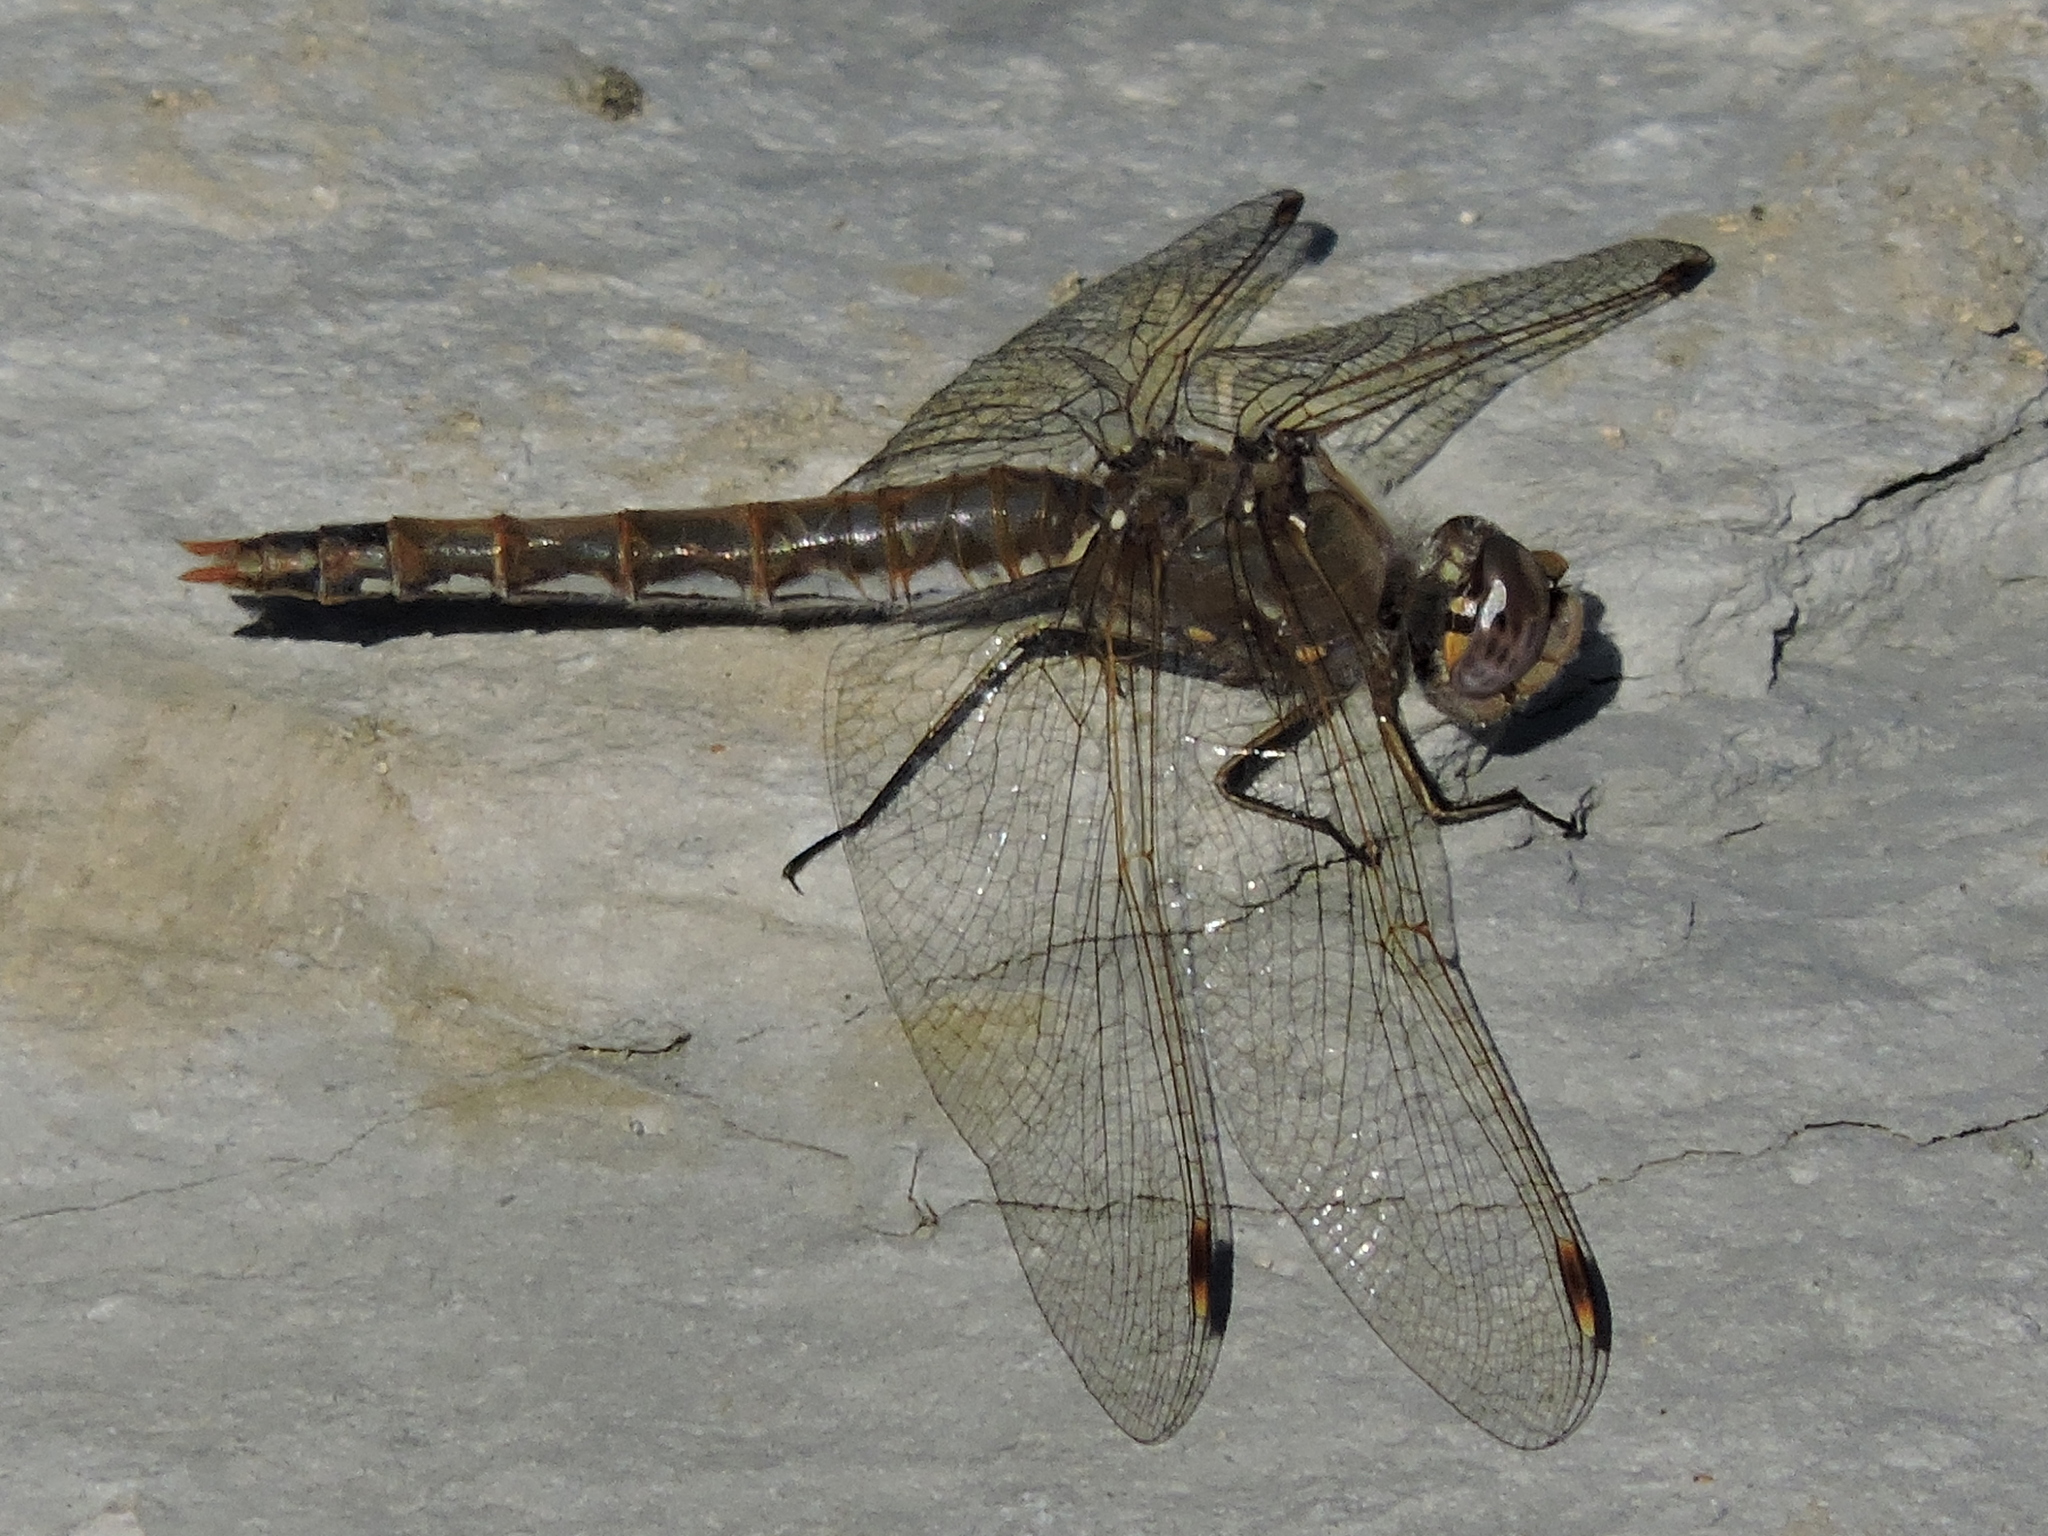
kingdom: Animalia
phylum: Arthropoda
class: Insecta
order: Odonata
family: Libellulidae
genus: Sympetrum
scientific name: Sympetrum corruptum
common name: Variegated meadowhawk
